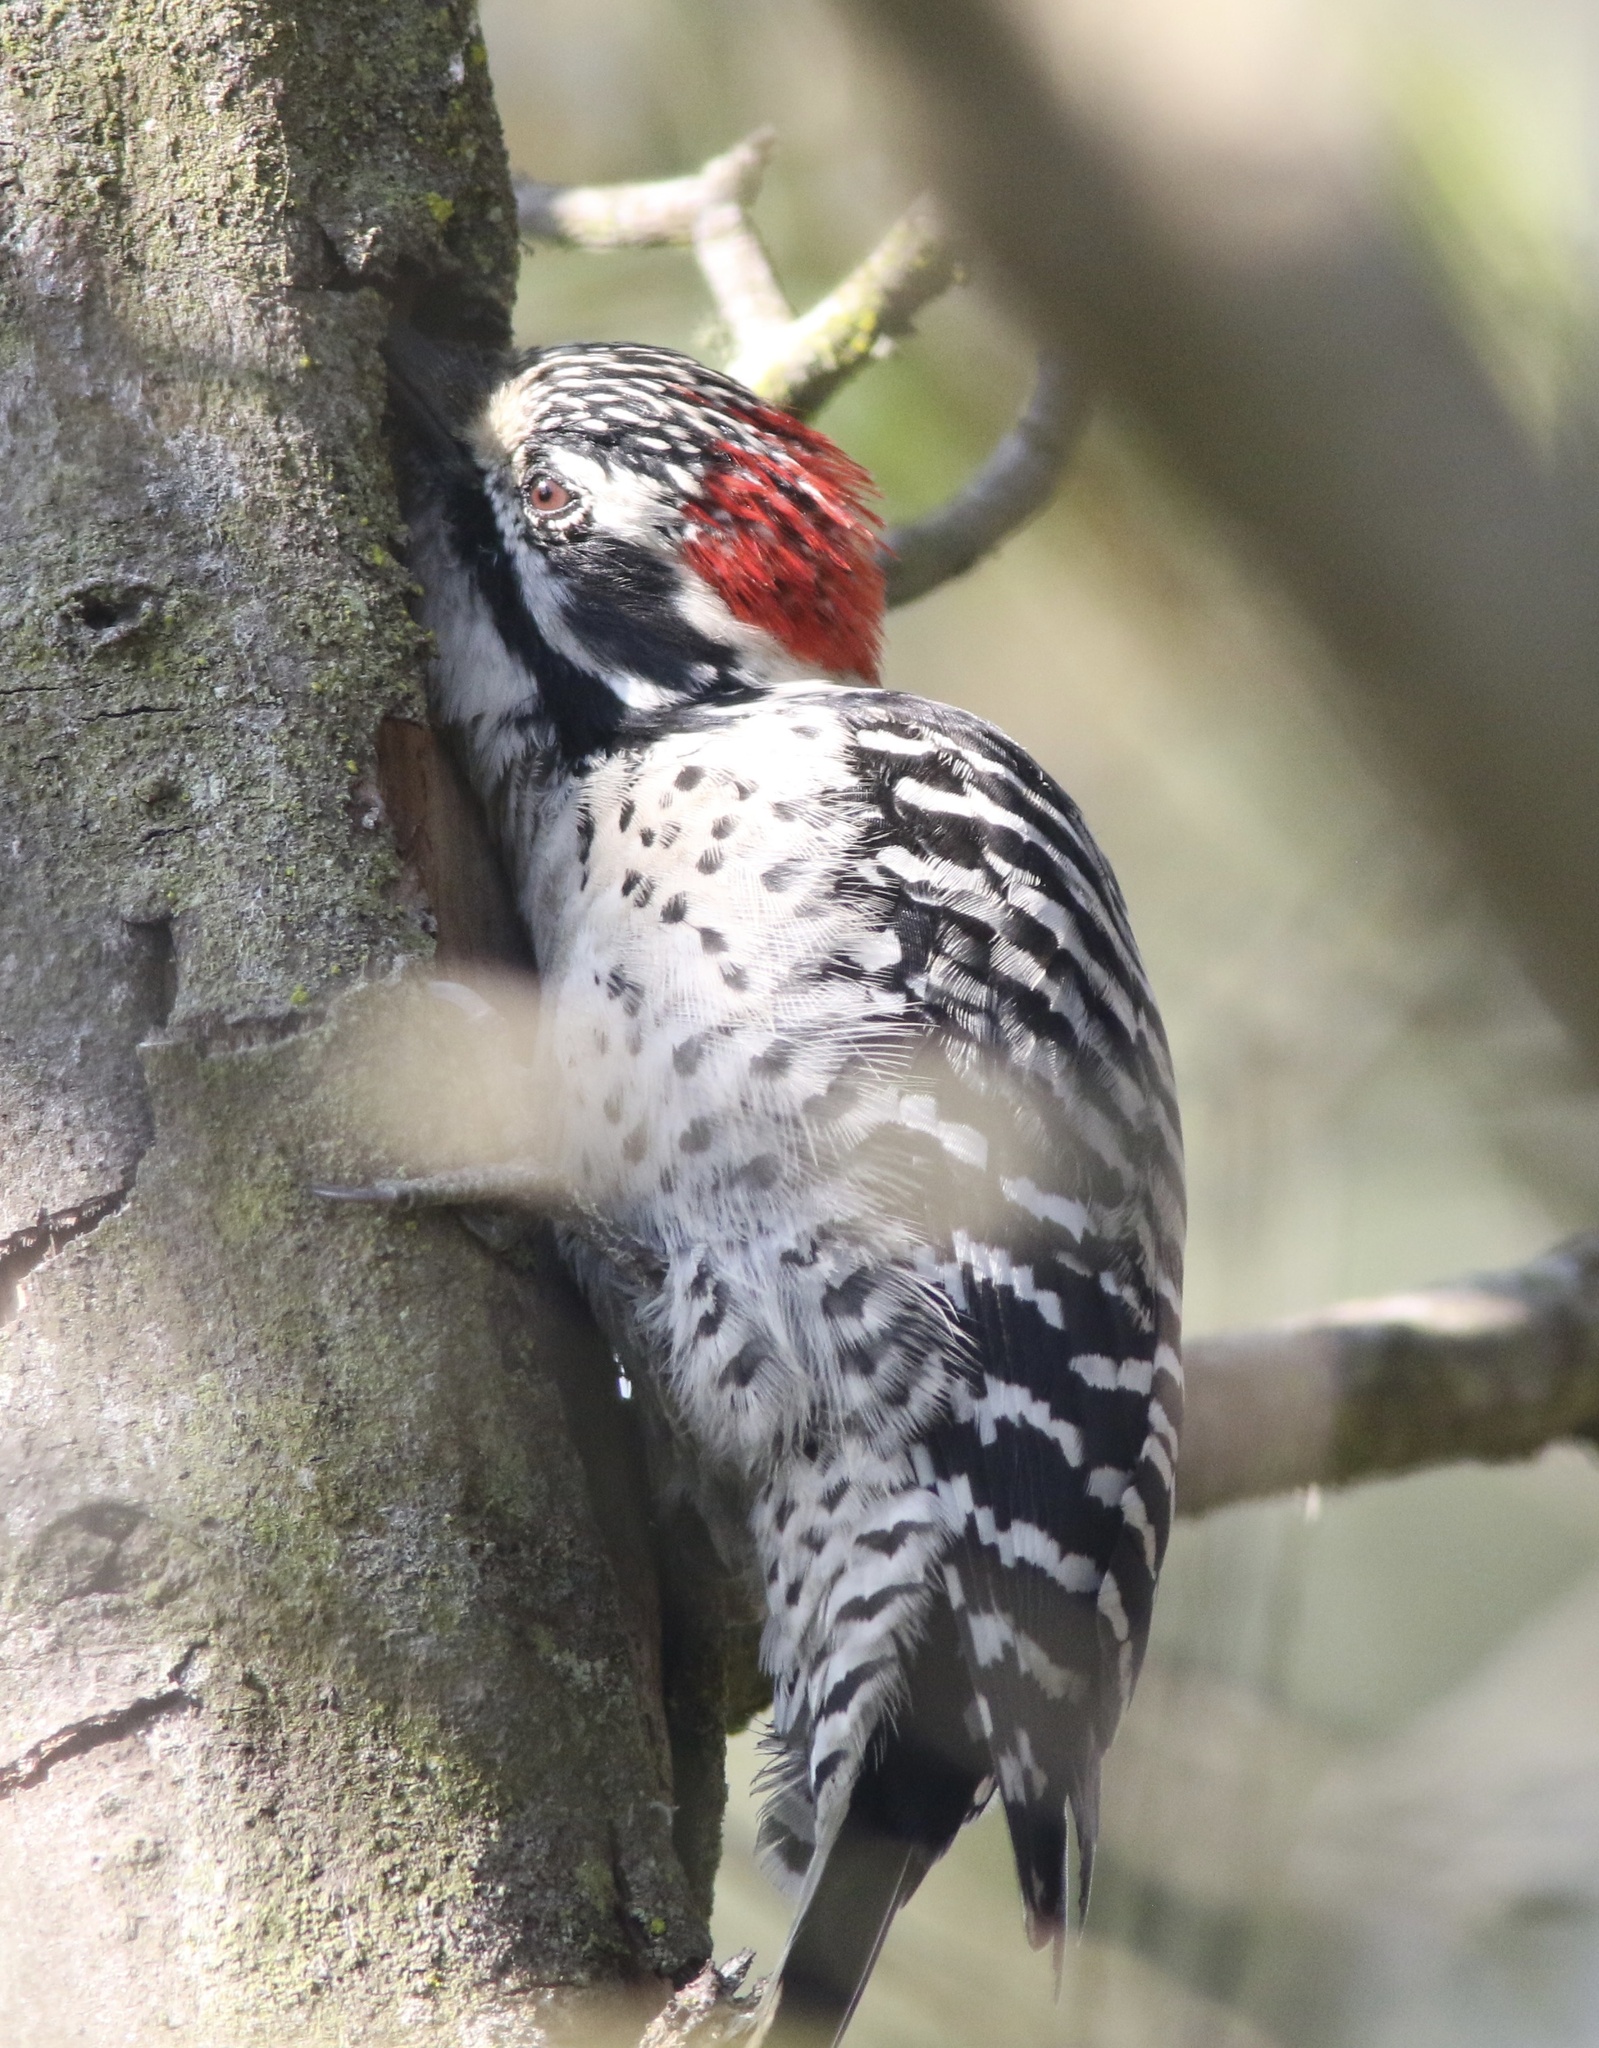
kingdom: Animalia
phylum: Chordata
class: Aves
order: Piciformes
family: Picidae
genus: Dryobates
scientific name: Dryobates nuttallii
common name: Nuttall's woodpecker
